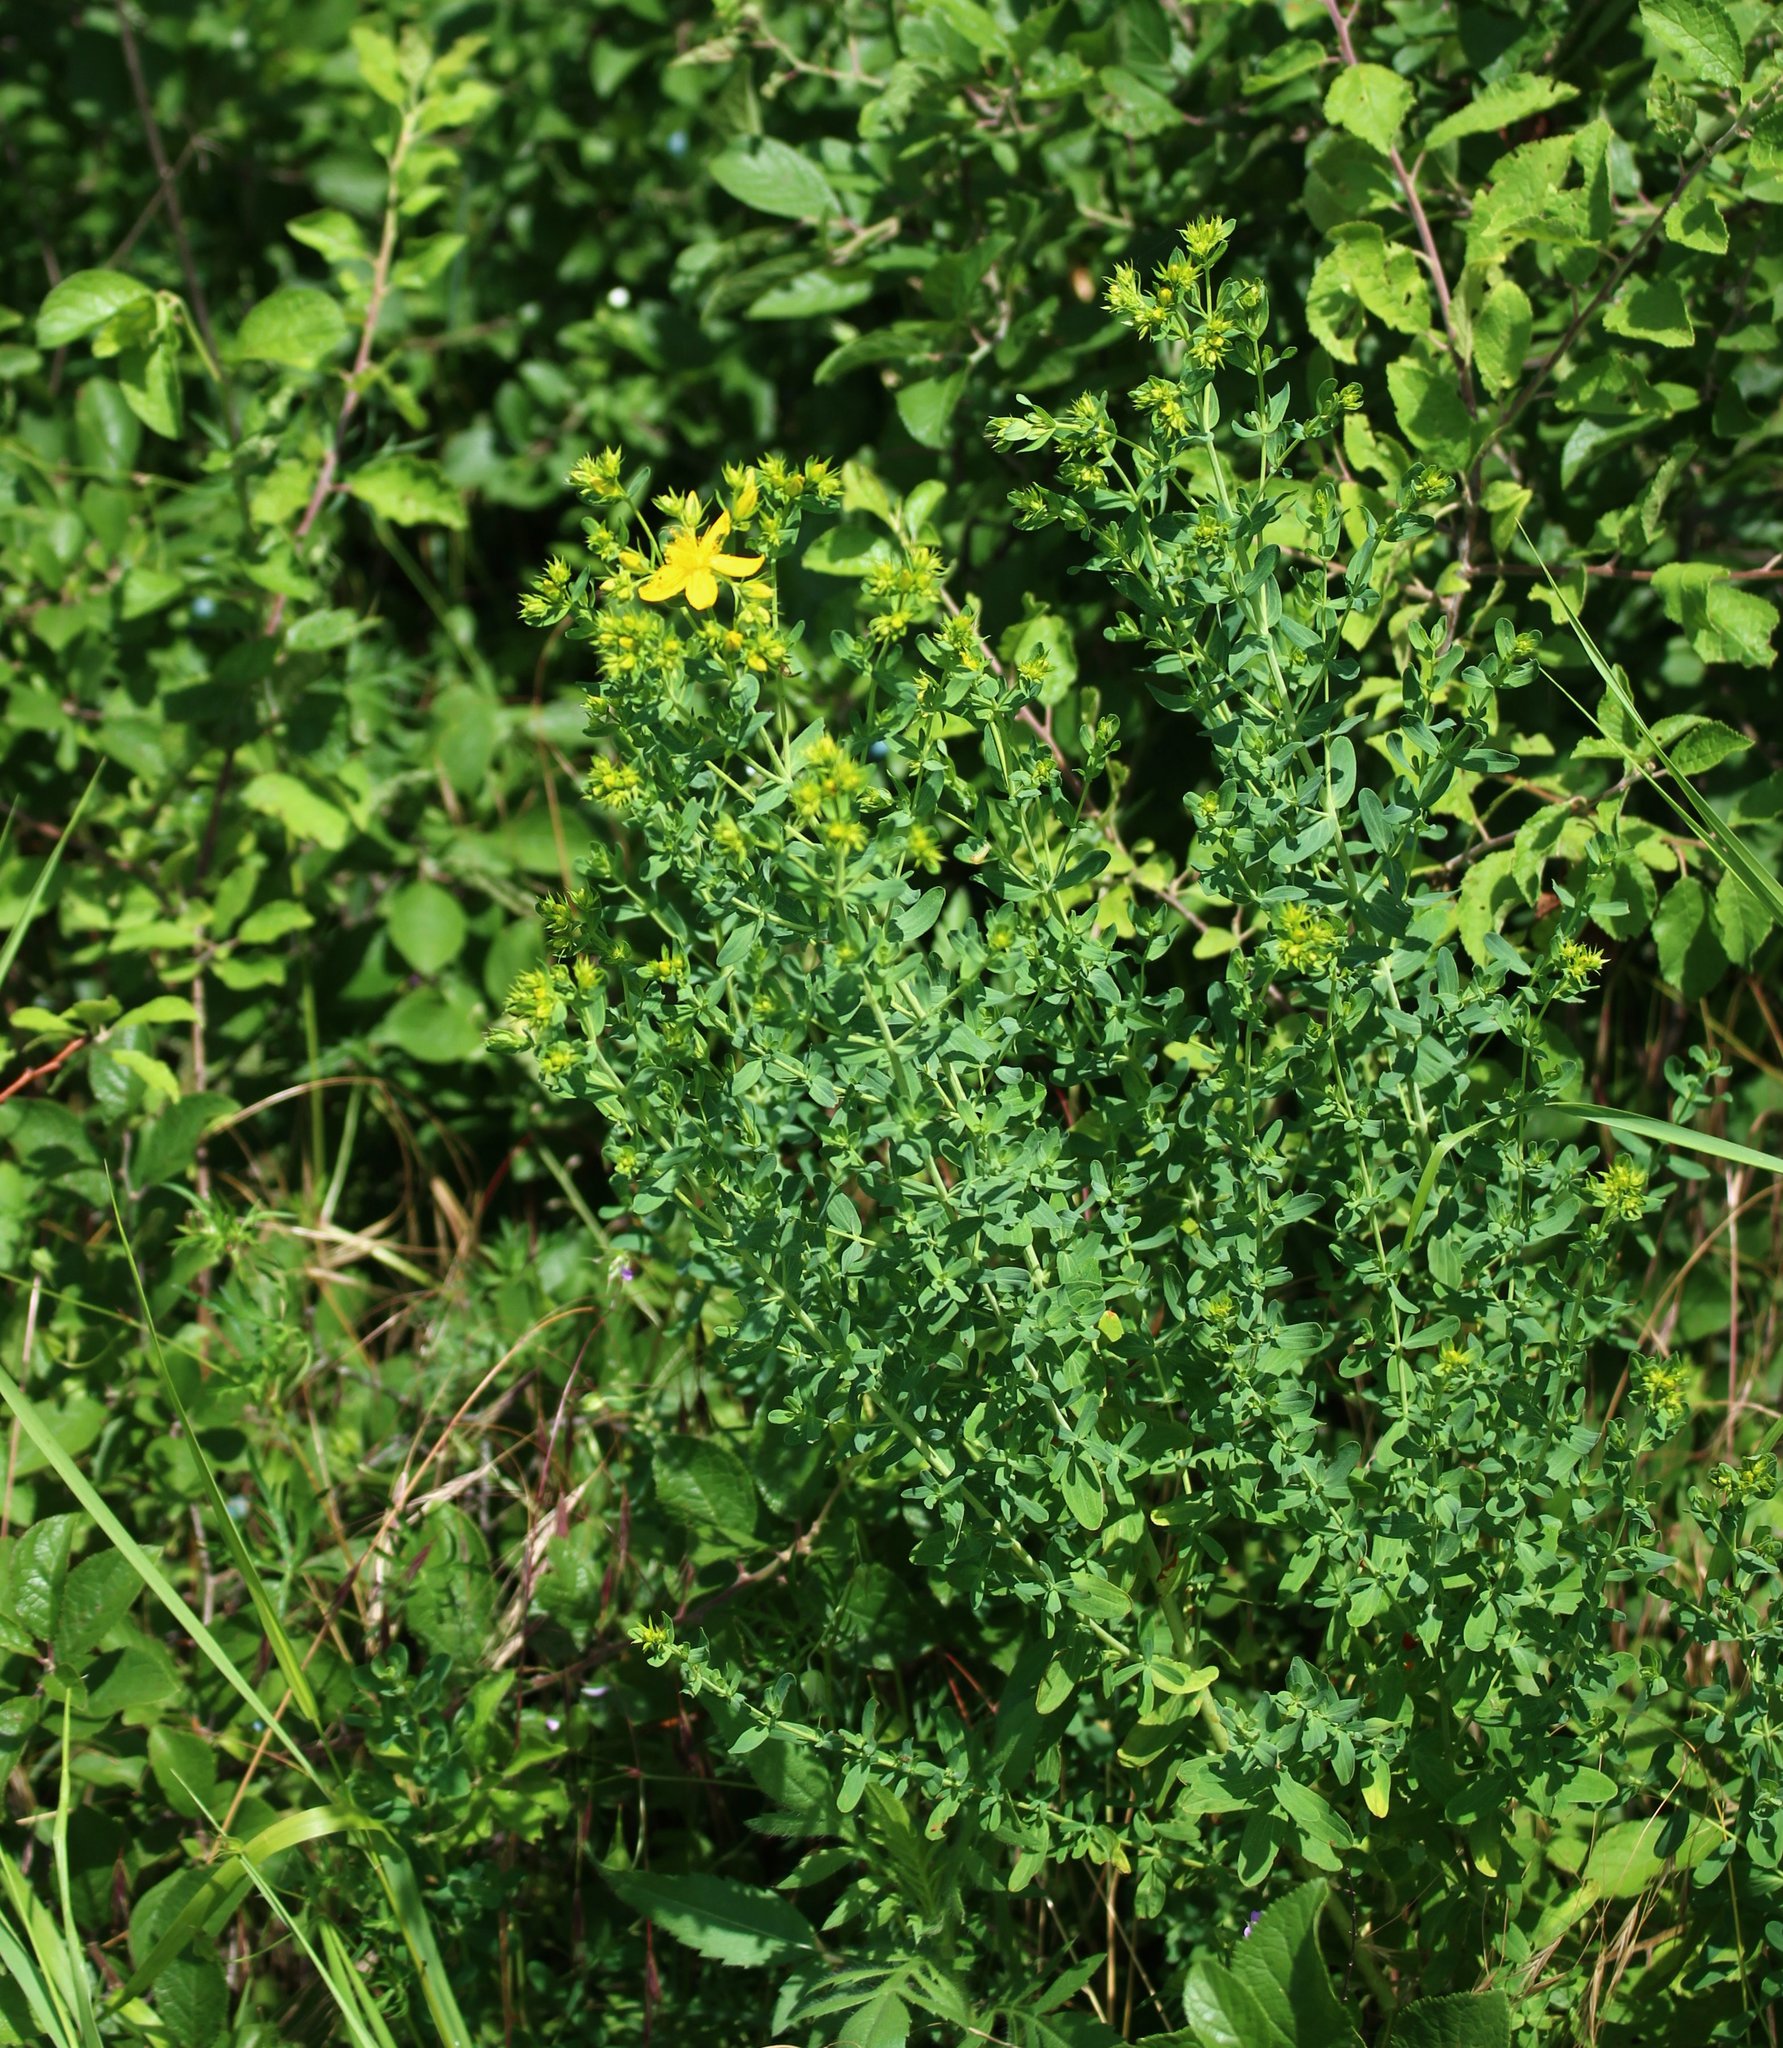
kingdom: Plantae
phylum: Tracheophyta
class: Magnoliopsida
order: Malpighiales
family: Hypericaceae
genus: Hypericum
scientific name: Hypericum perforatum
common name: Common st. johnswort
